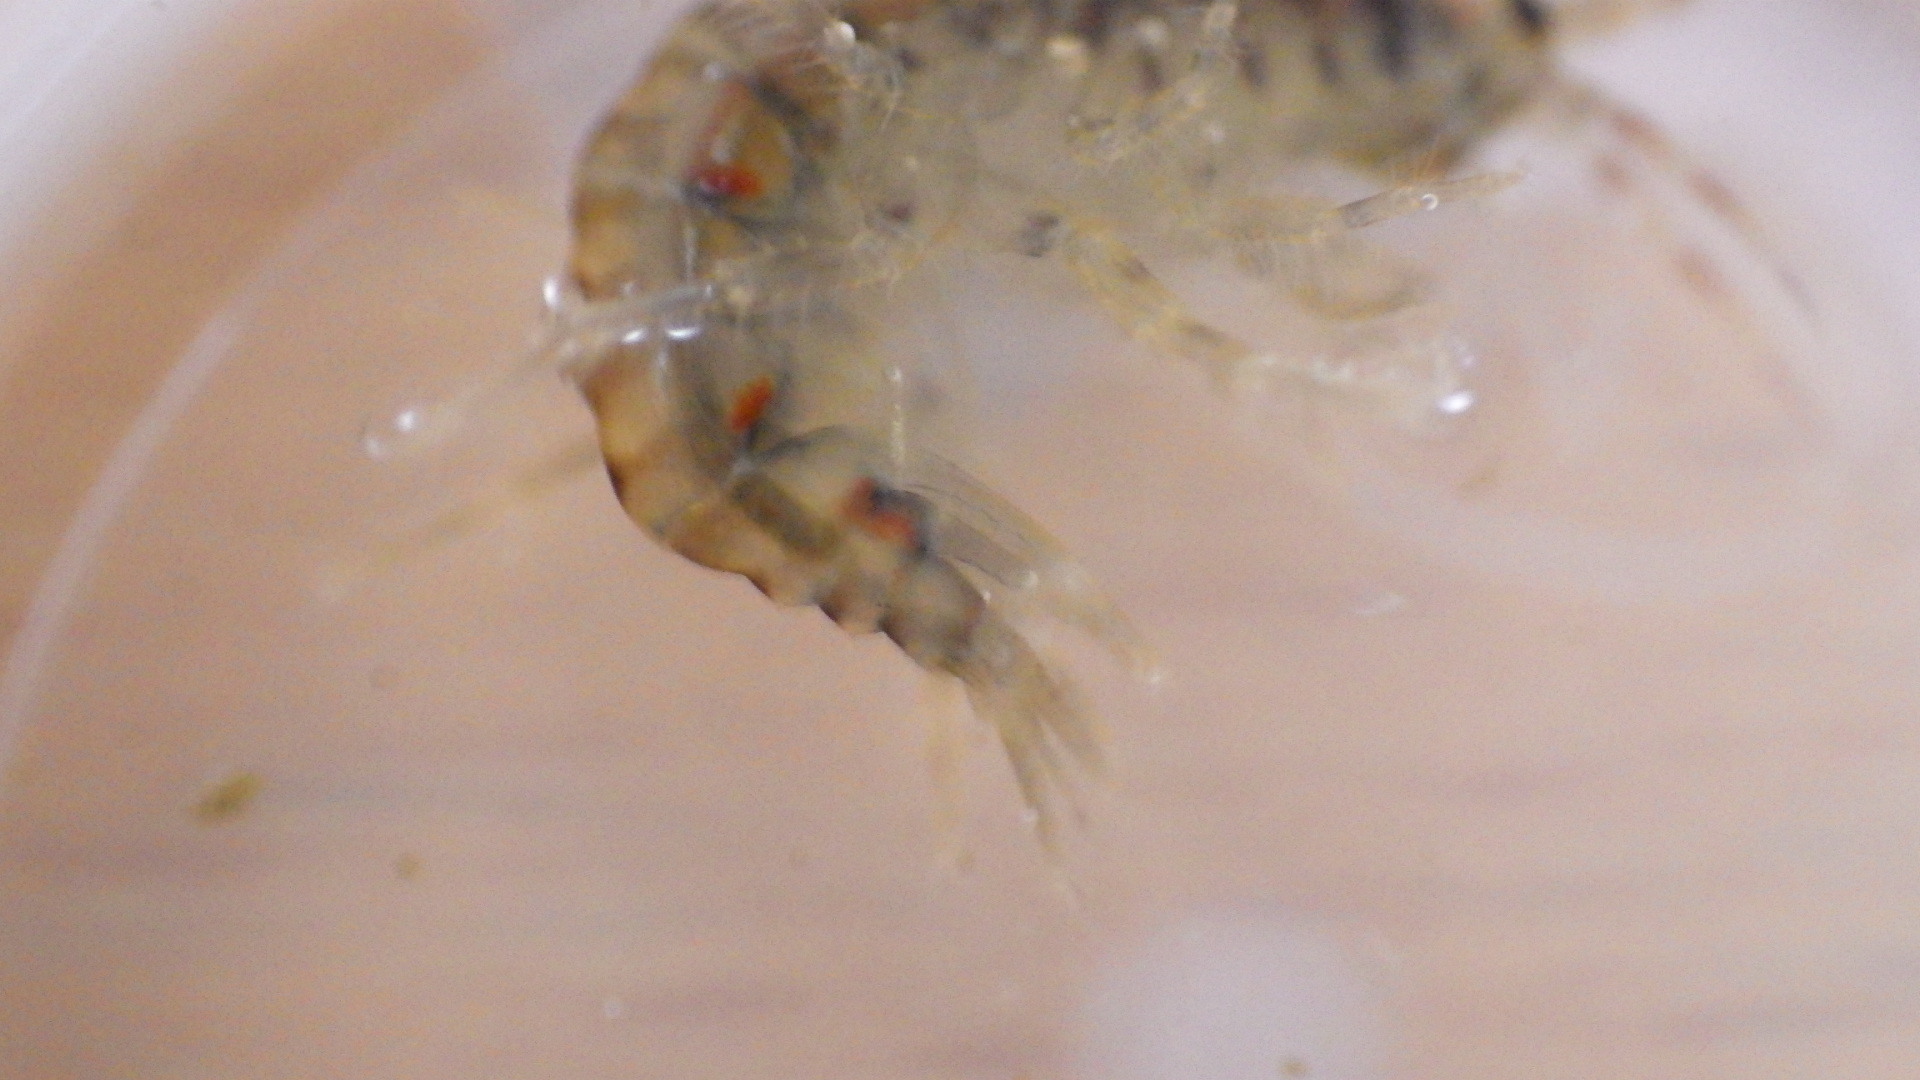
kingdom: Animalia
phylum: Arthropoda
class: Malacostraca
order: Amphipoda
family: Gammaridae
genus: Gammarus
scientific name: Gammarus fasciatus
